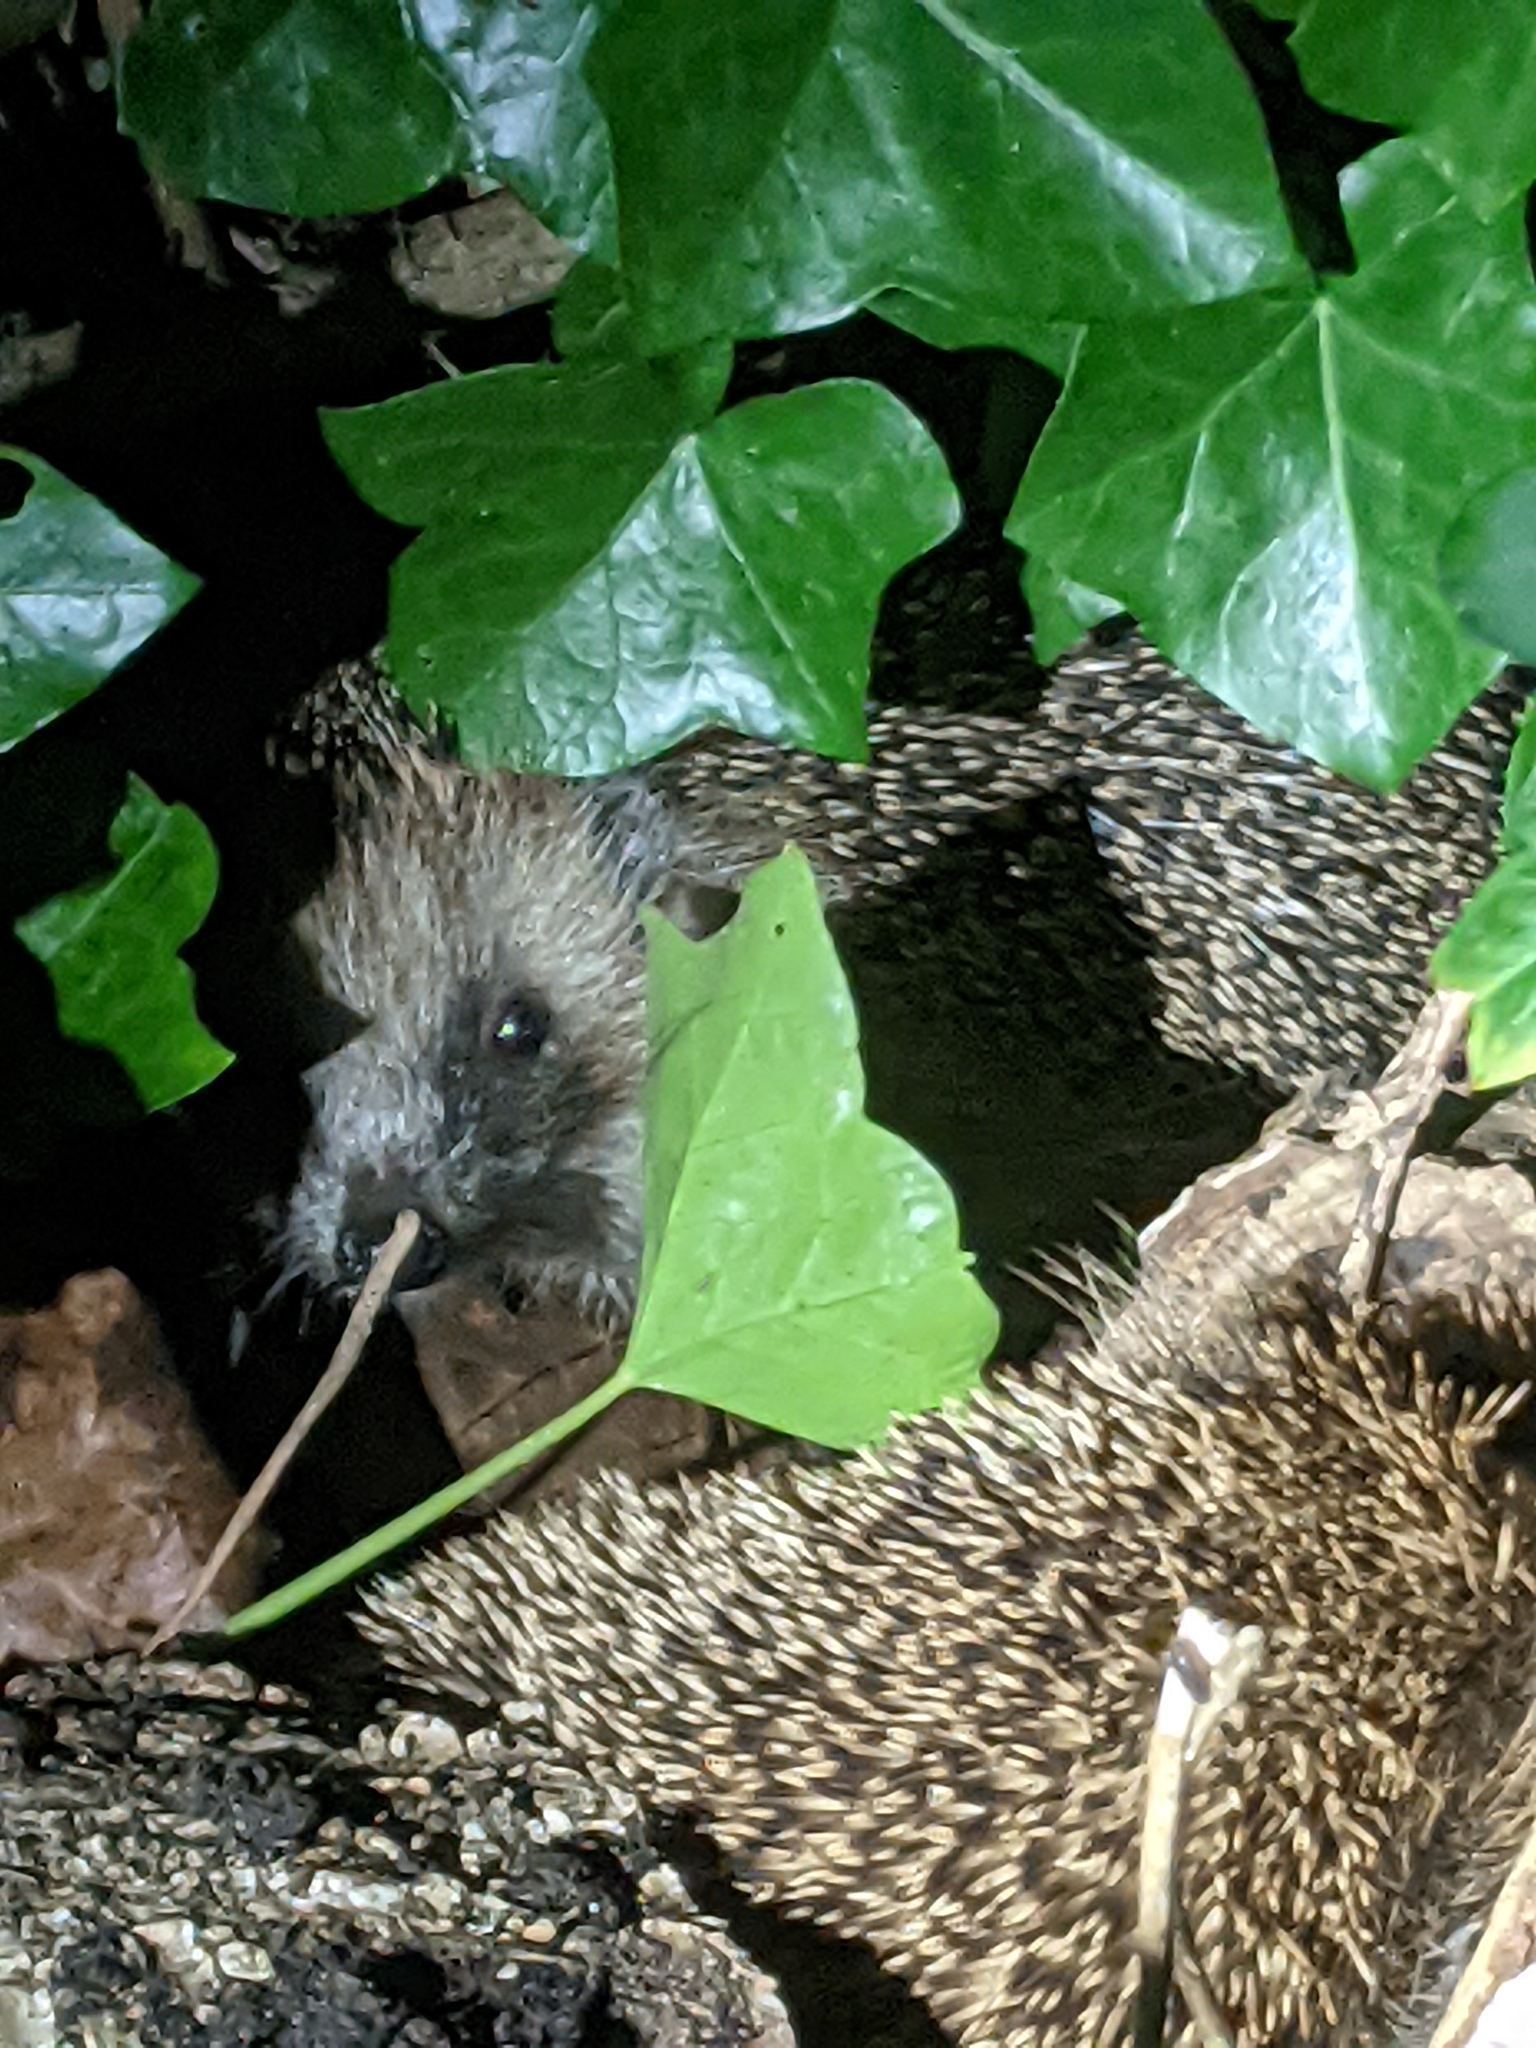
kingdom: Animalia
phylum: Chordata
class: Mammalia
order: Erinaceomorpha
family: Erinaceidae
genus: Erinaceus
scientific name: Erinaceus europaeus
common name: West european hedgehog
